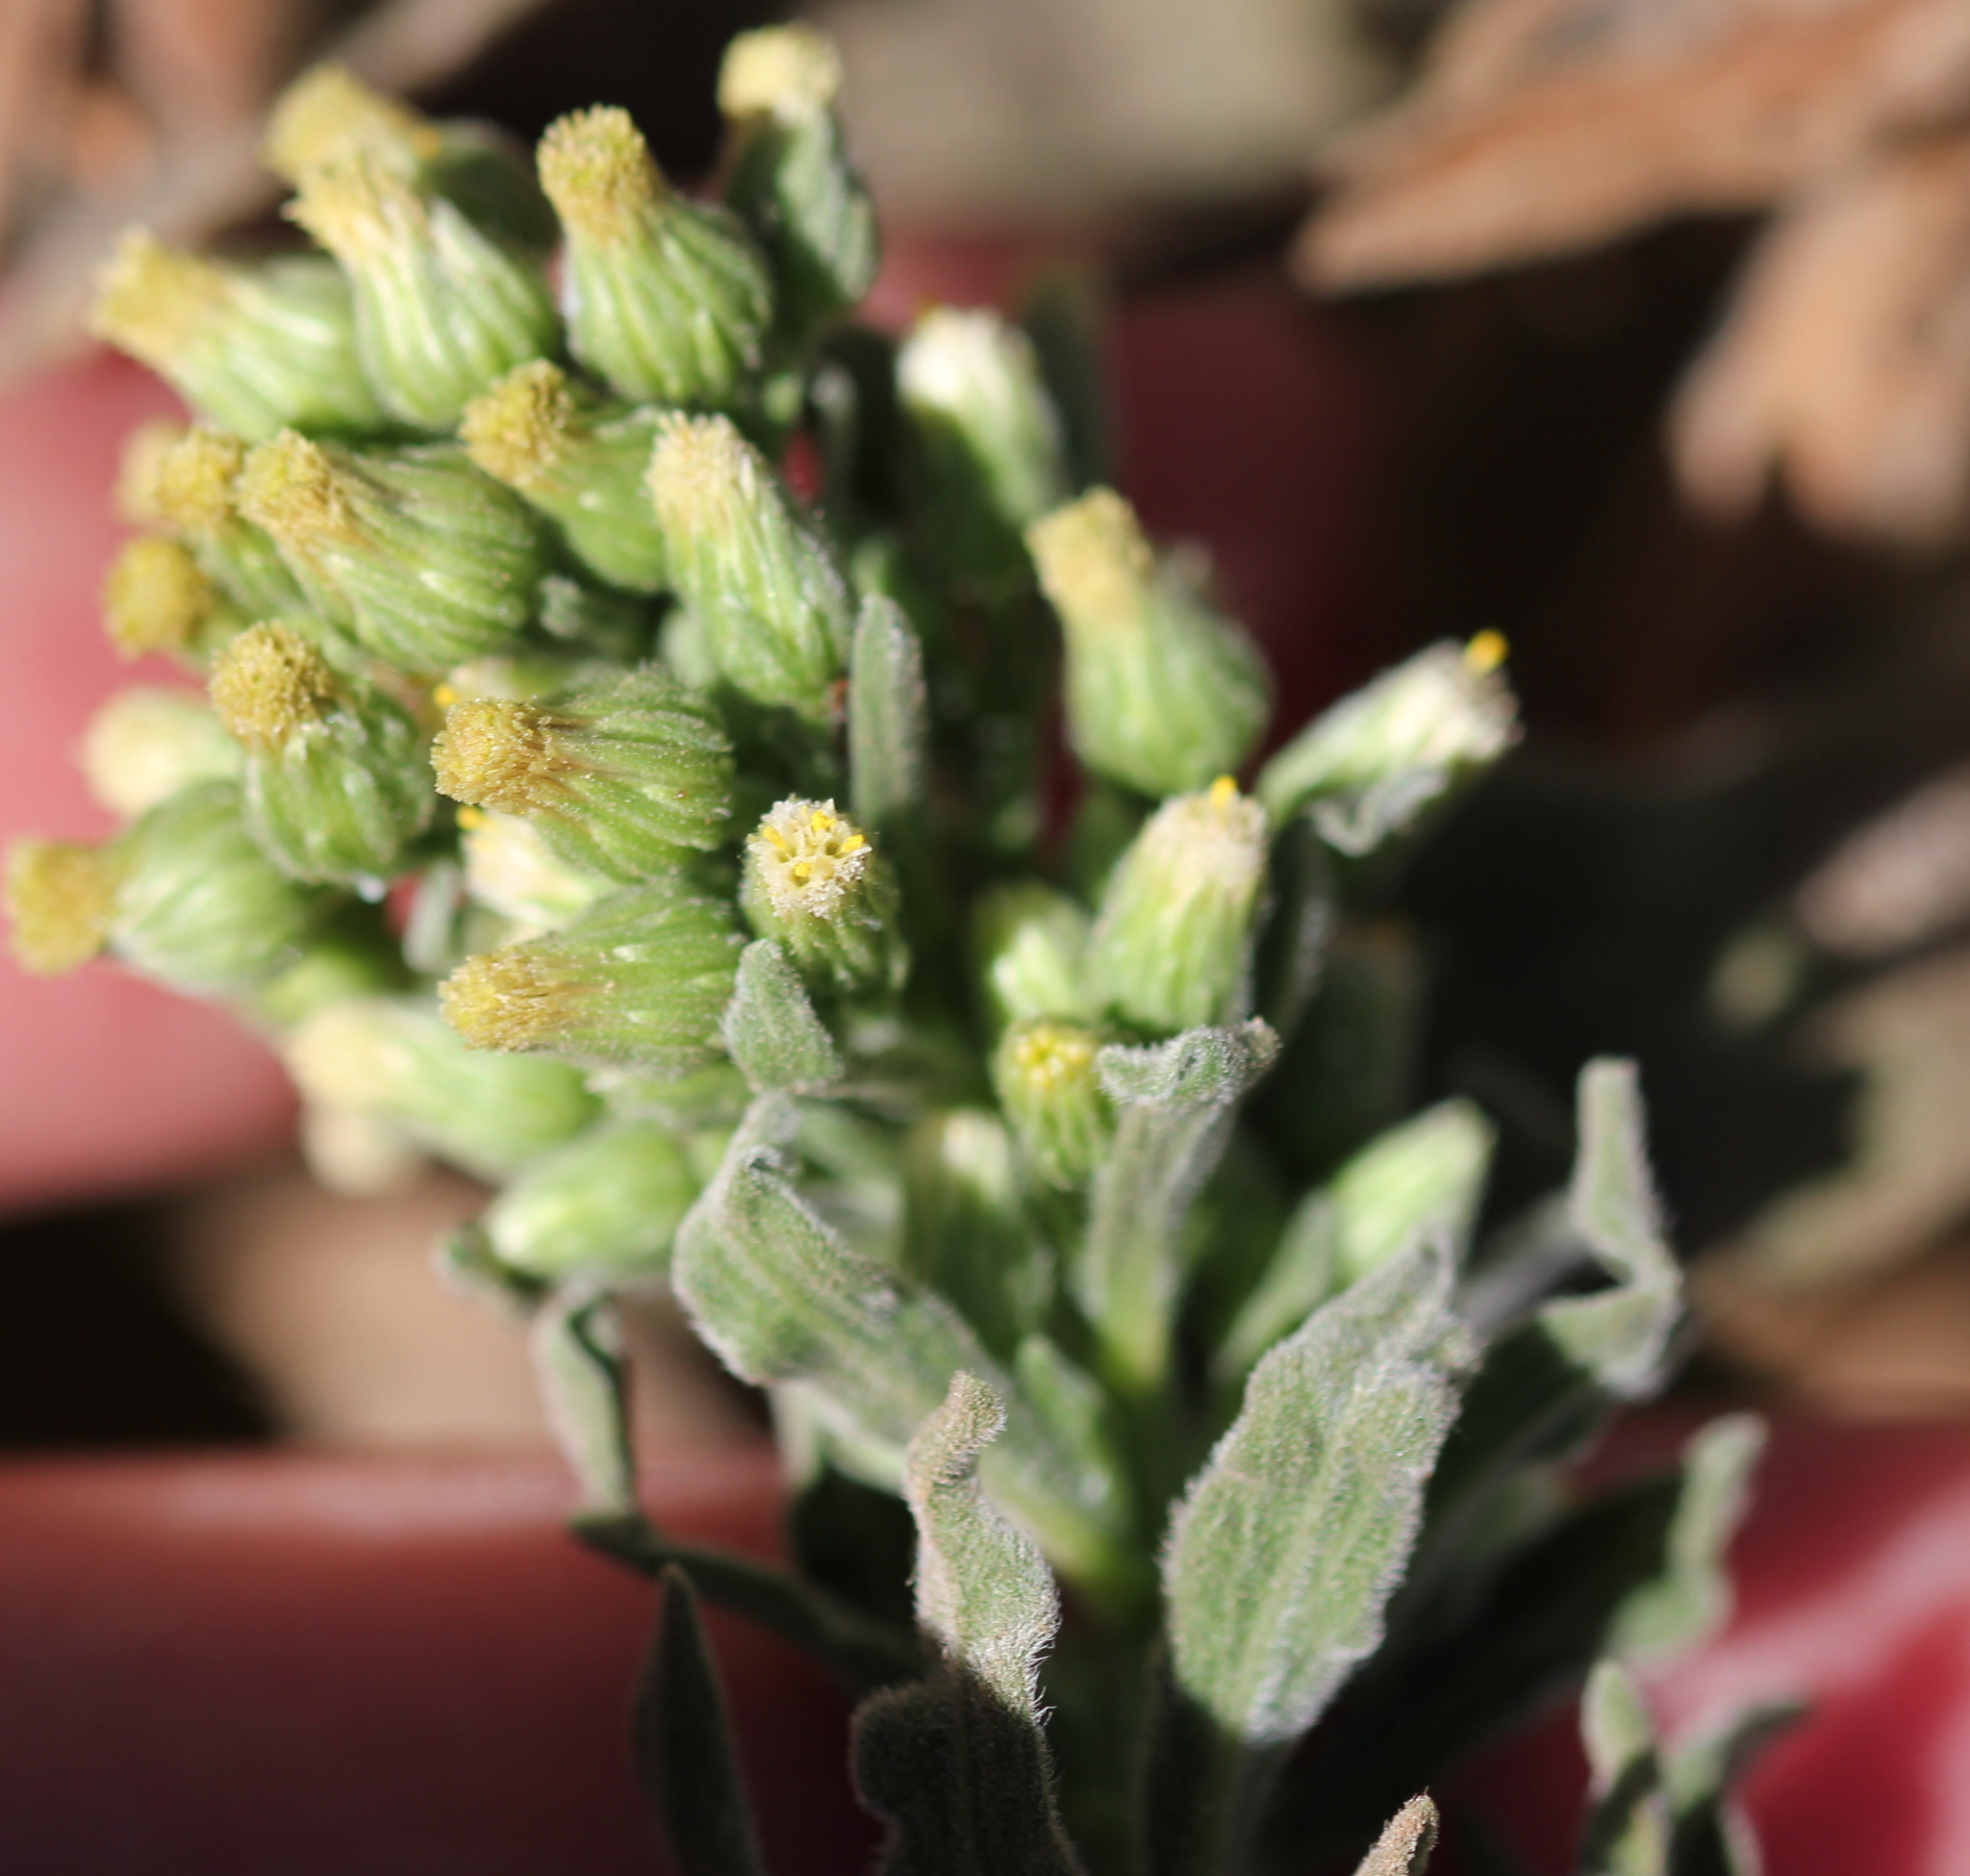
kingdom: Plantae
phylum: Tracheophyta
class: Magnoliopsida
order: Asterales
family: Asteraceae
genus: Erigeron
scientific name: Erigeron sumatrensis
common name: Daisy
